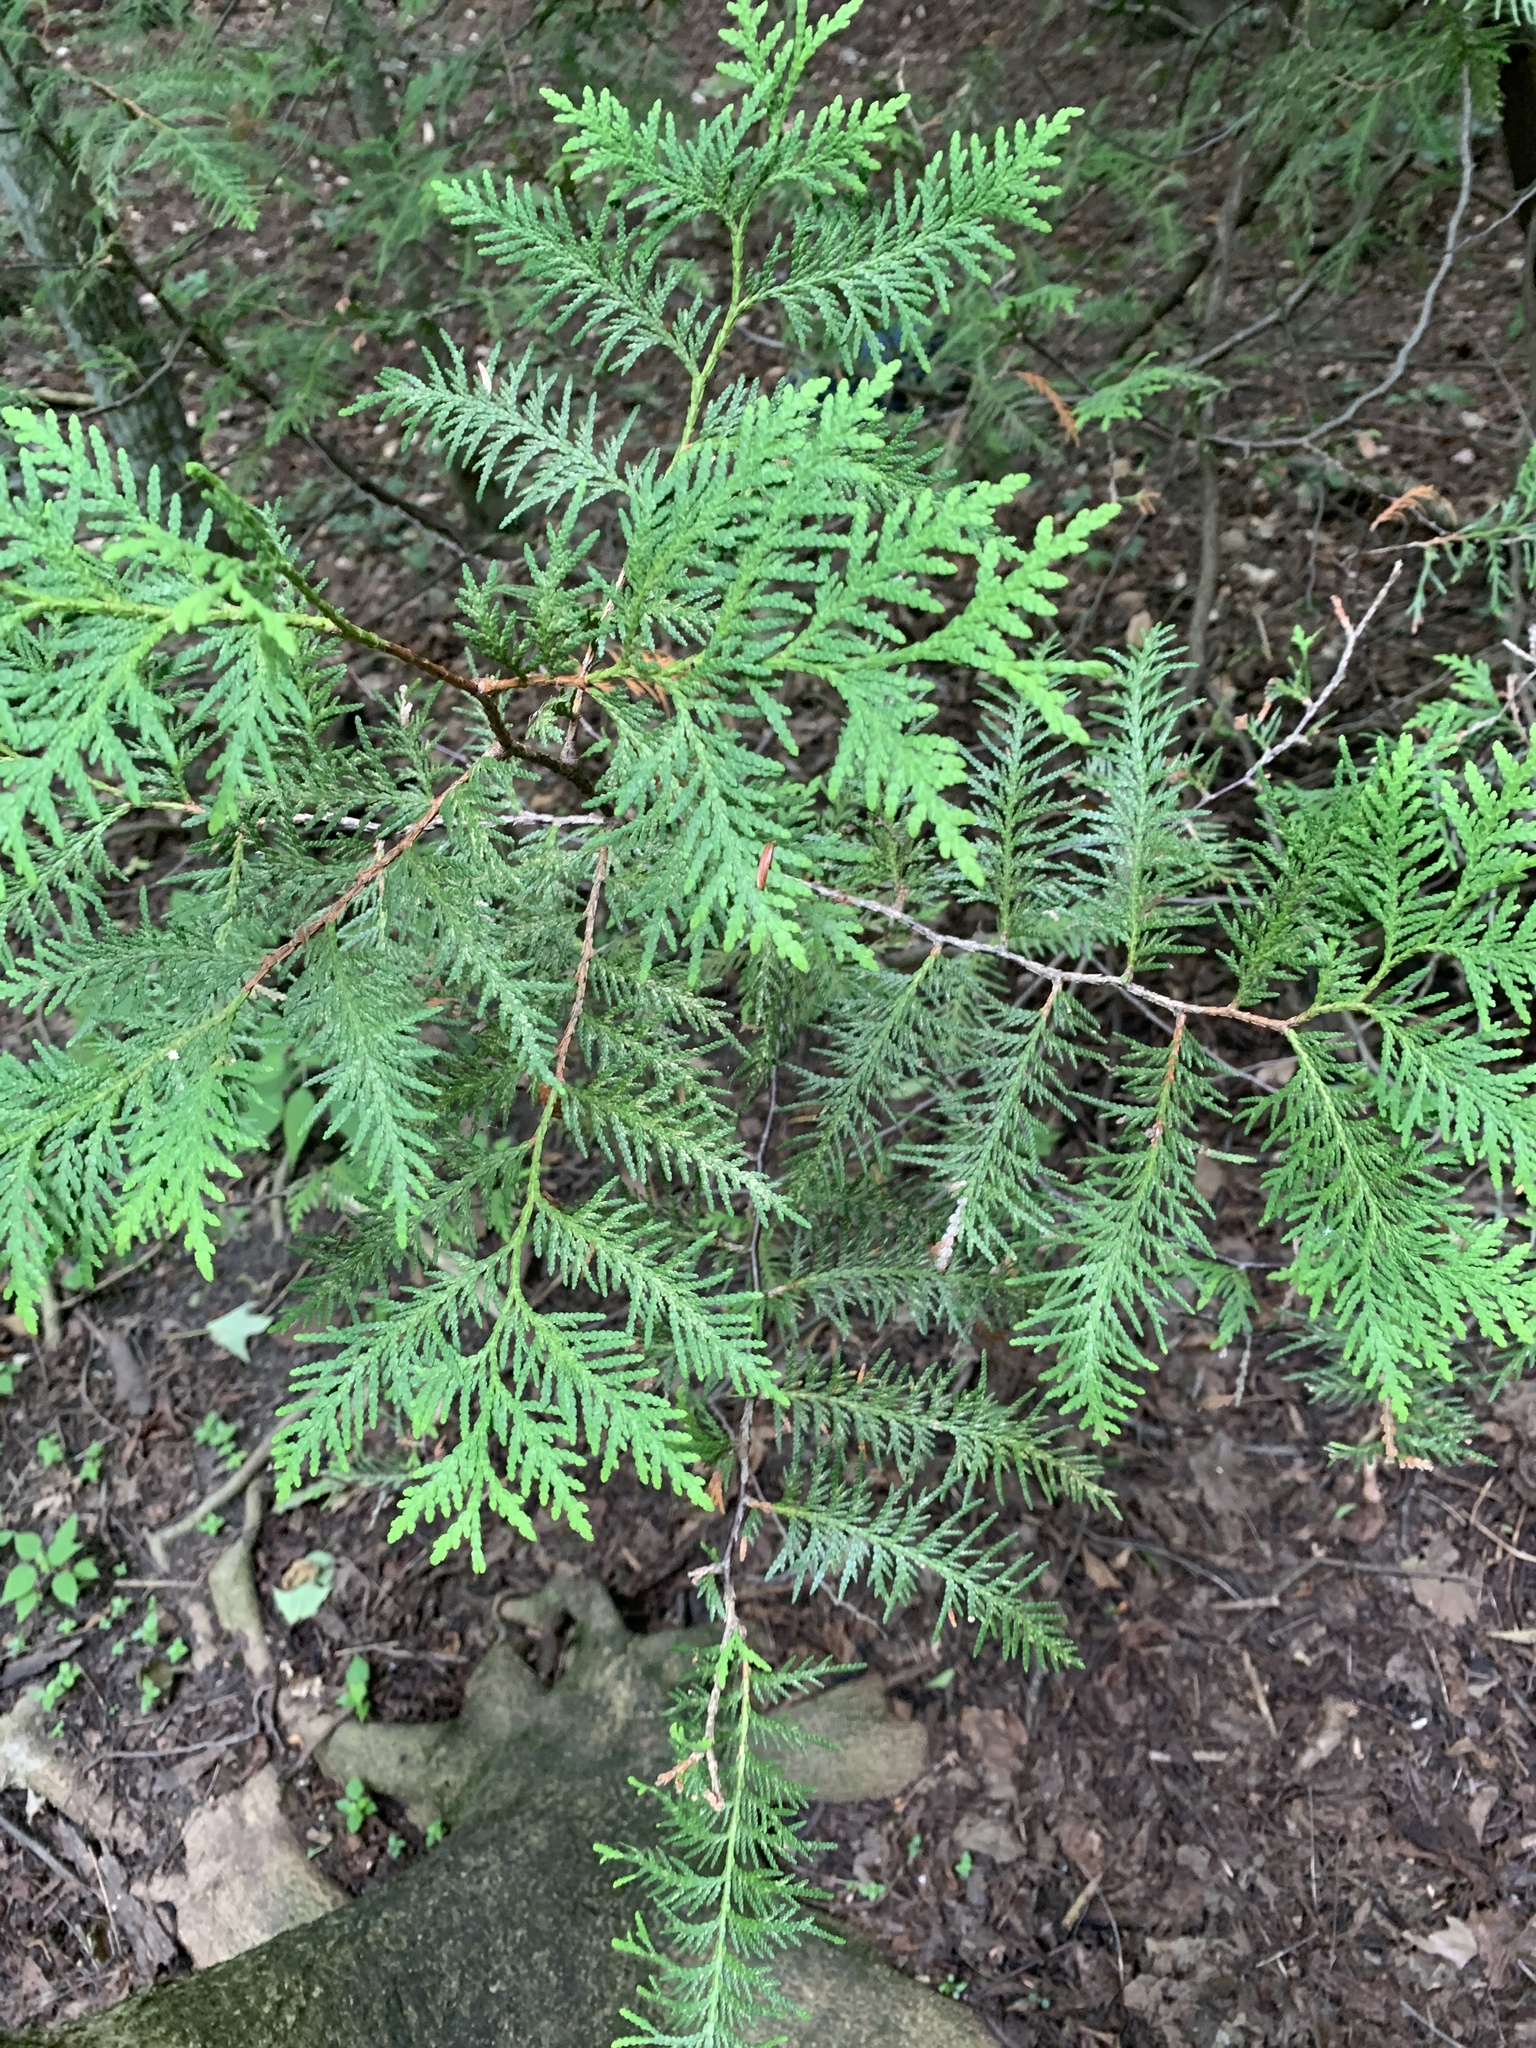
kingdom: Plantae
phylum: Tracheophyta
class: Pinopsida
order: Pinales
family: Cupressaceae
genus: Thuja
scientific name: Thuja occidentalis
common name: Northern white-cedar
